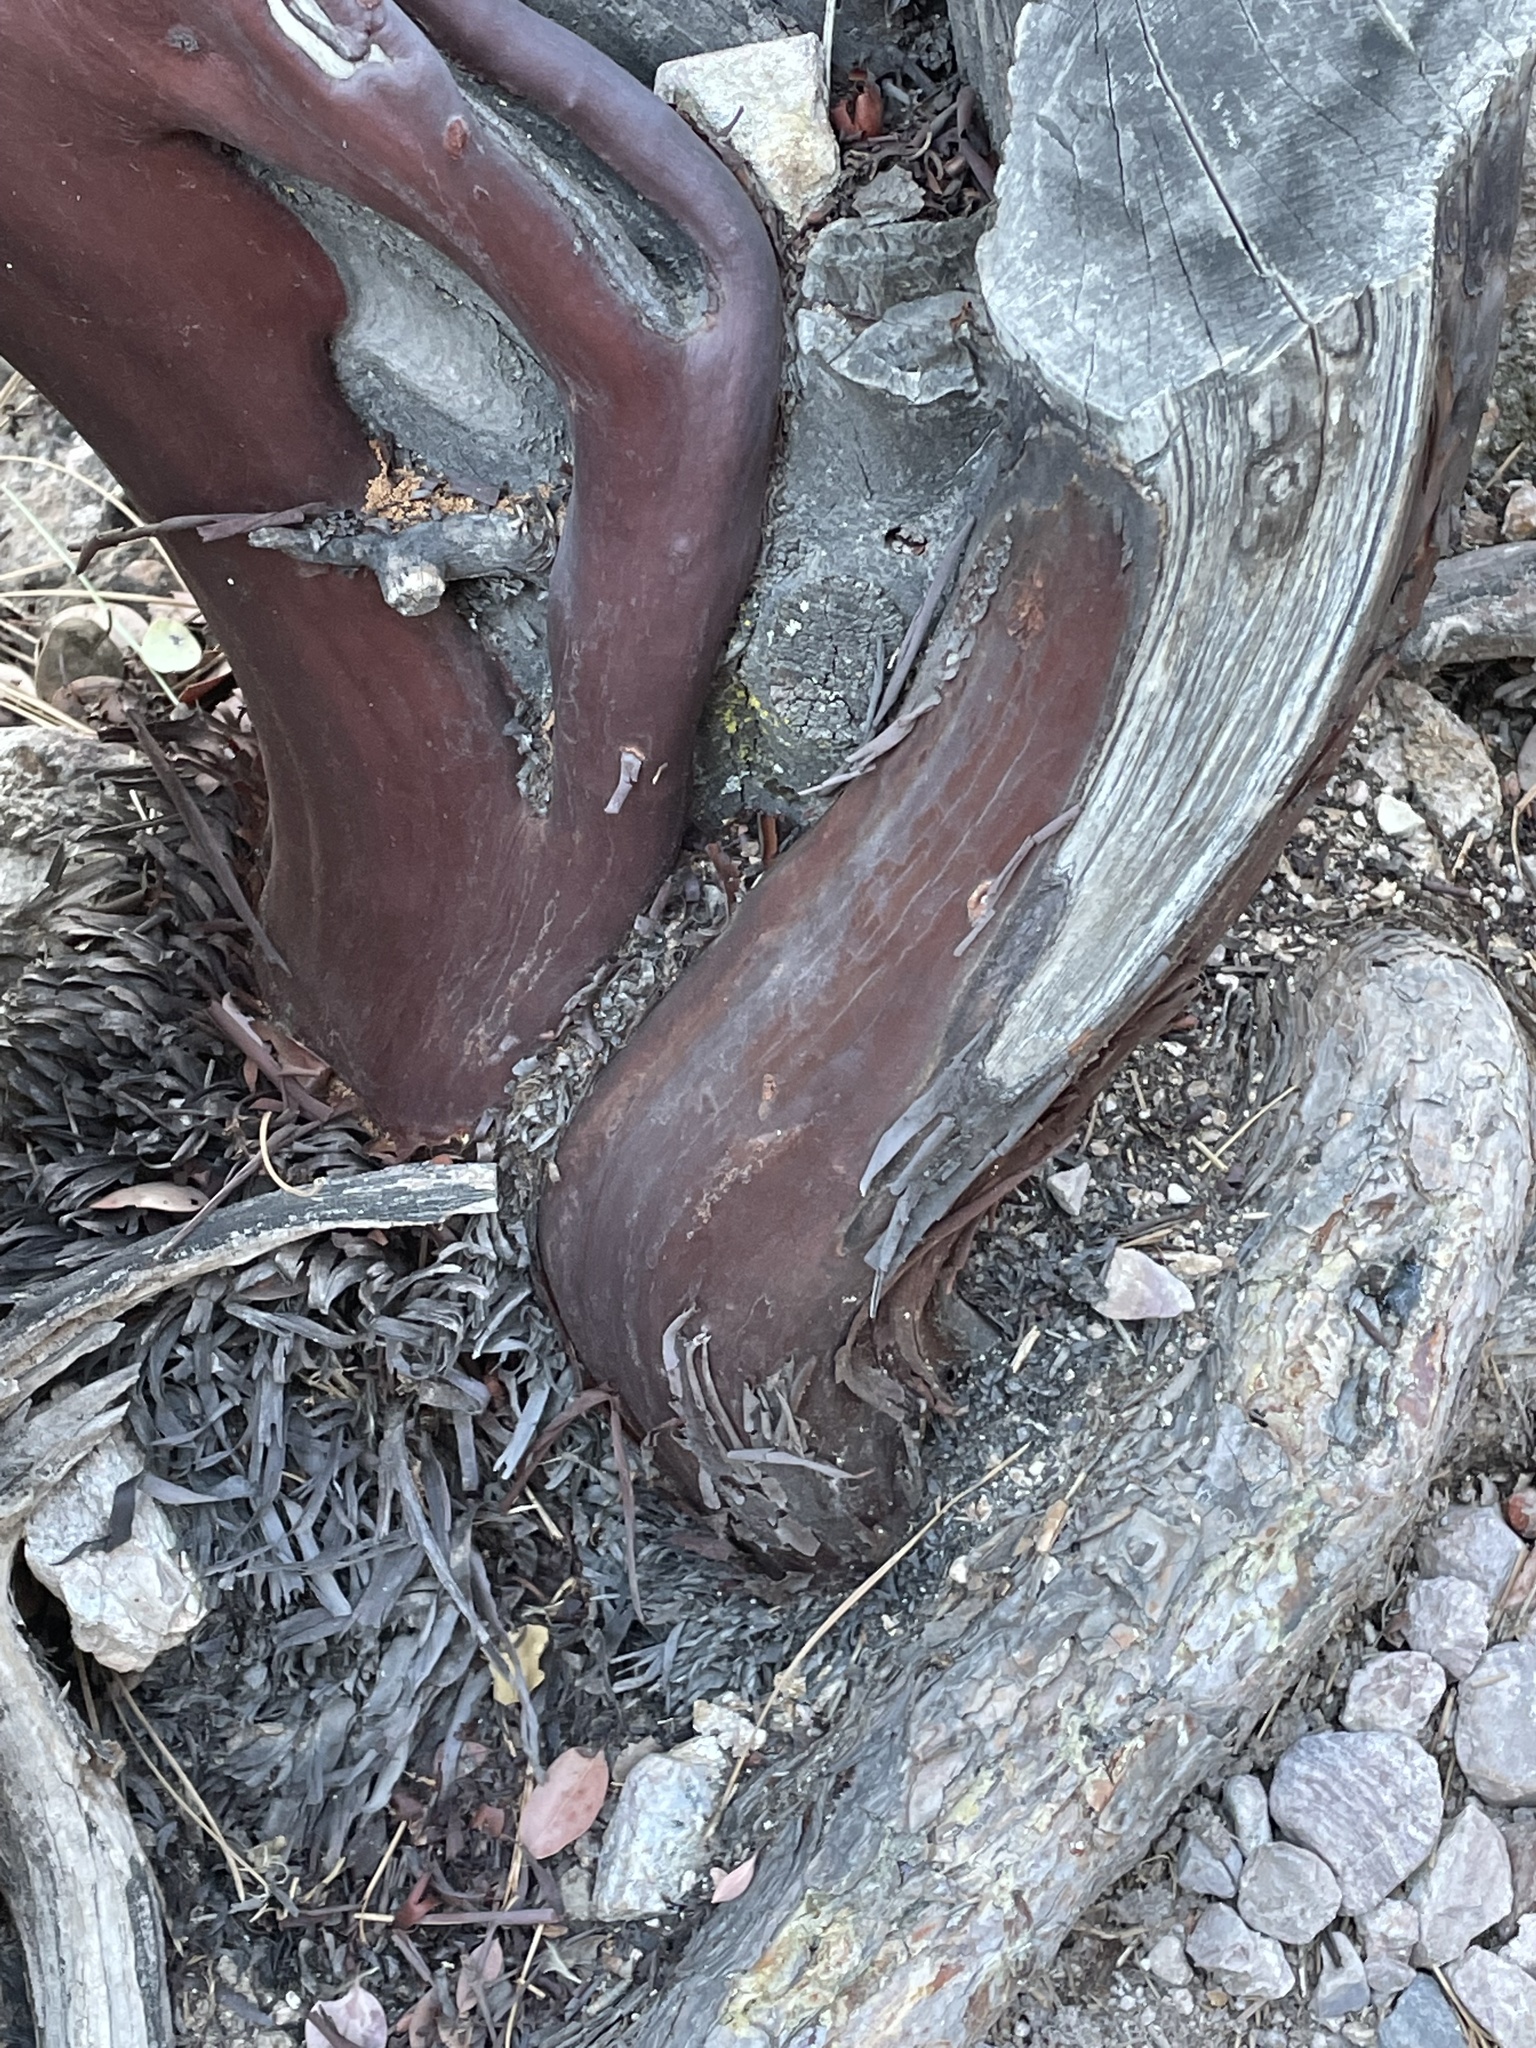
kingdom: Plantae
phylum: Tracheophyta
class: Magnoliopsida
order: Ericales
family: Ericaceae
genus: Arctostaphylos
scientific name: Arctostaphylos glauca
